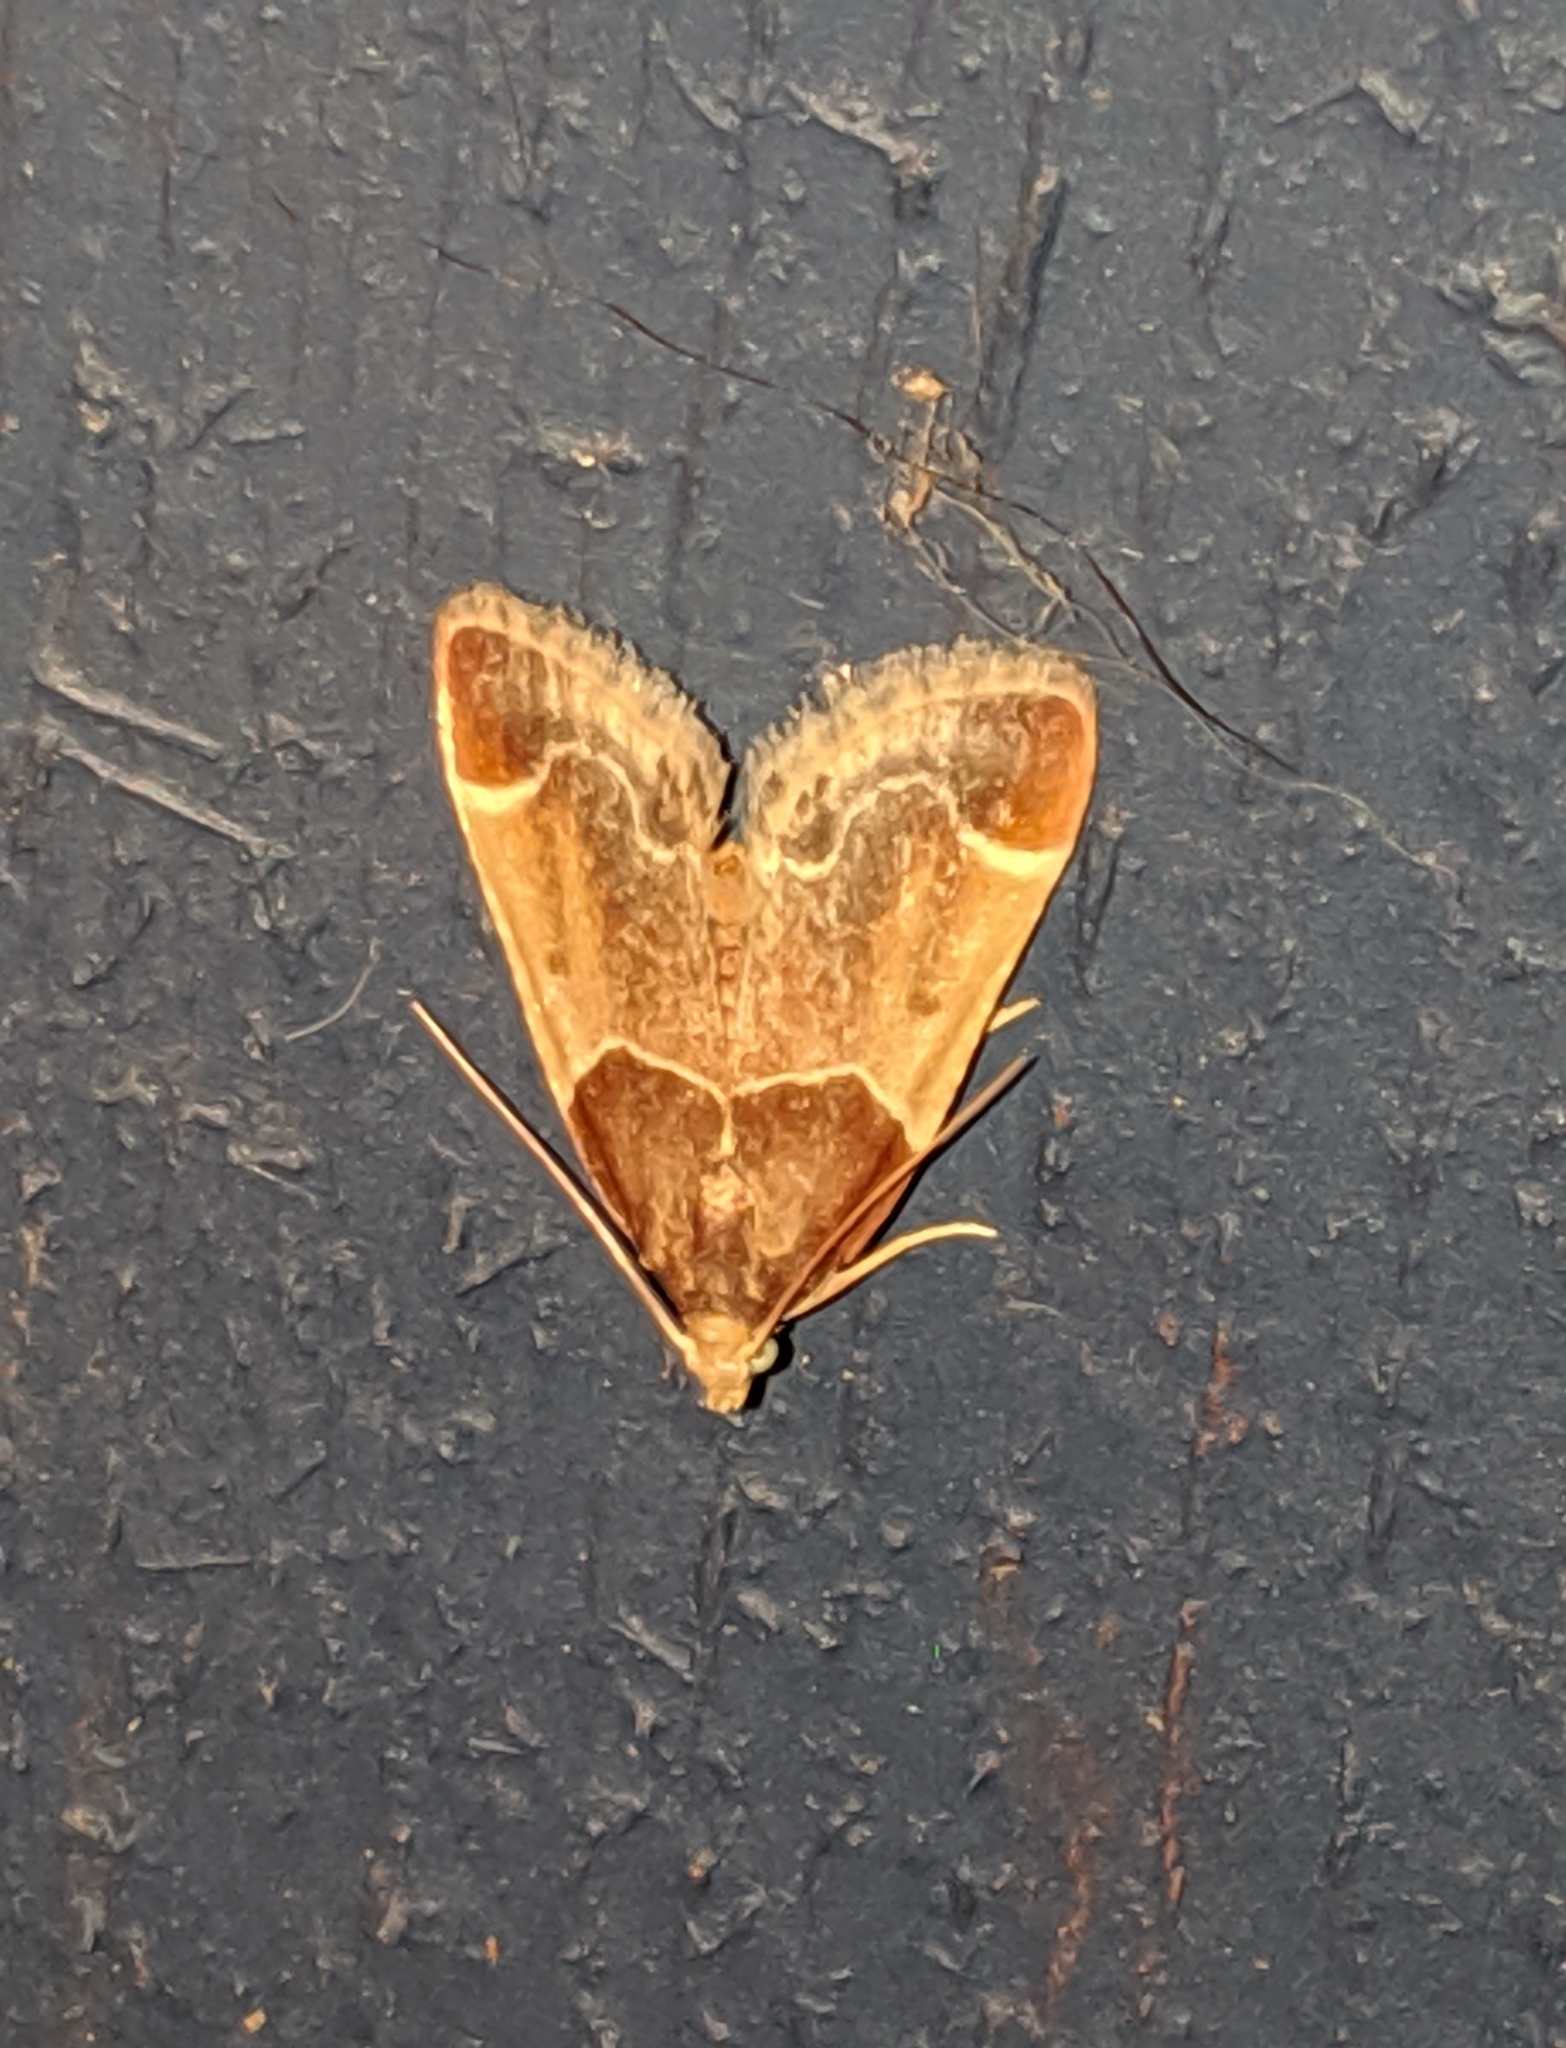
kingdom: Animalia
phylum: Arthropoda
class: Insecta
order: Lepidoptera
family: Pyralidae
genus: Pyralis
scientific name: Pyralis farinalis
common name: Meal moth
